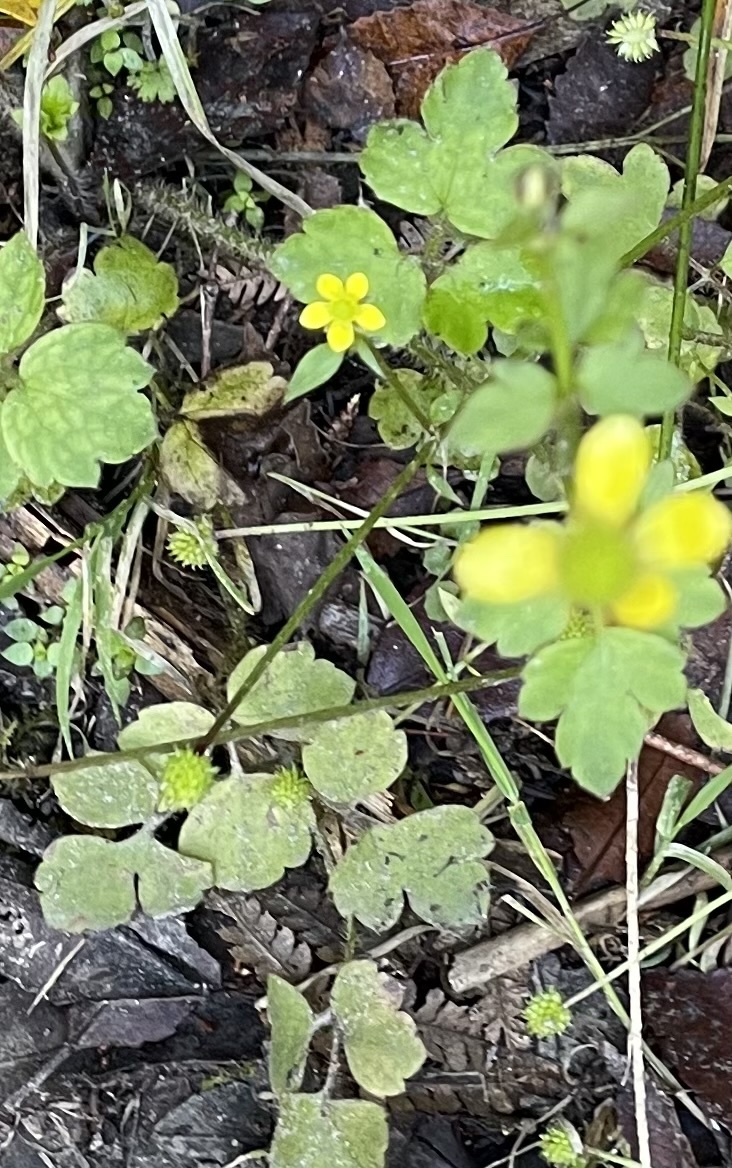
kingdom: Plantae
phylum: Tracheophyta
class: Magnoliopsida
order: Ranunculales
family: Ranunculaceae
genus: Ranunculus
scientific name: Ranunculus reflexus
